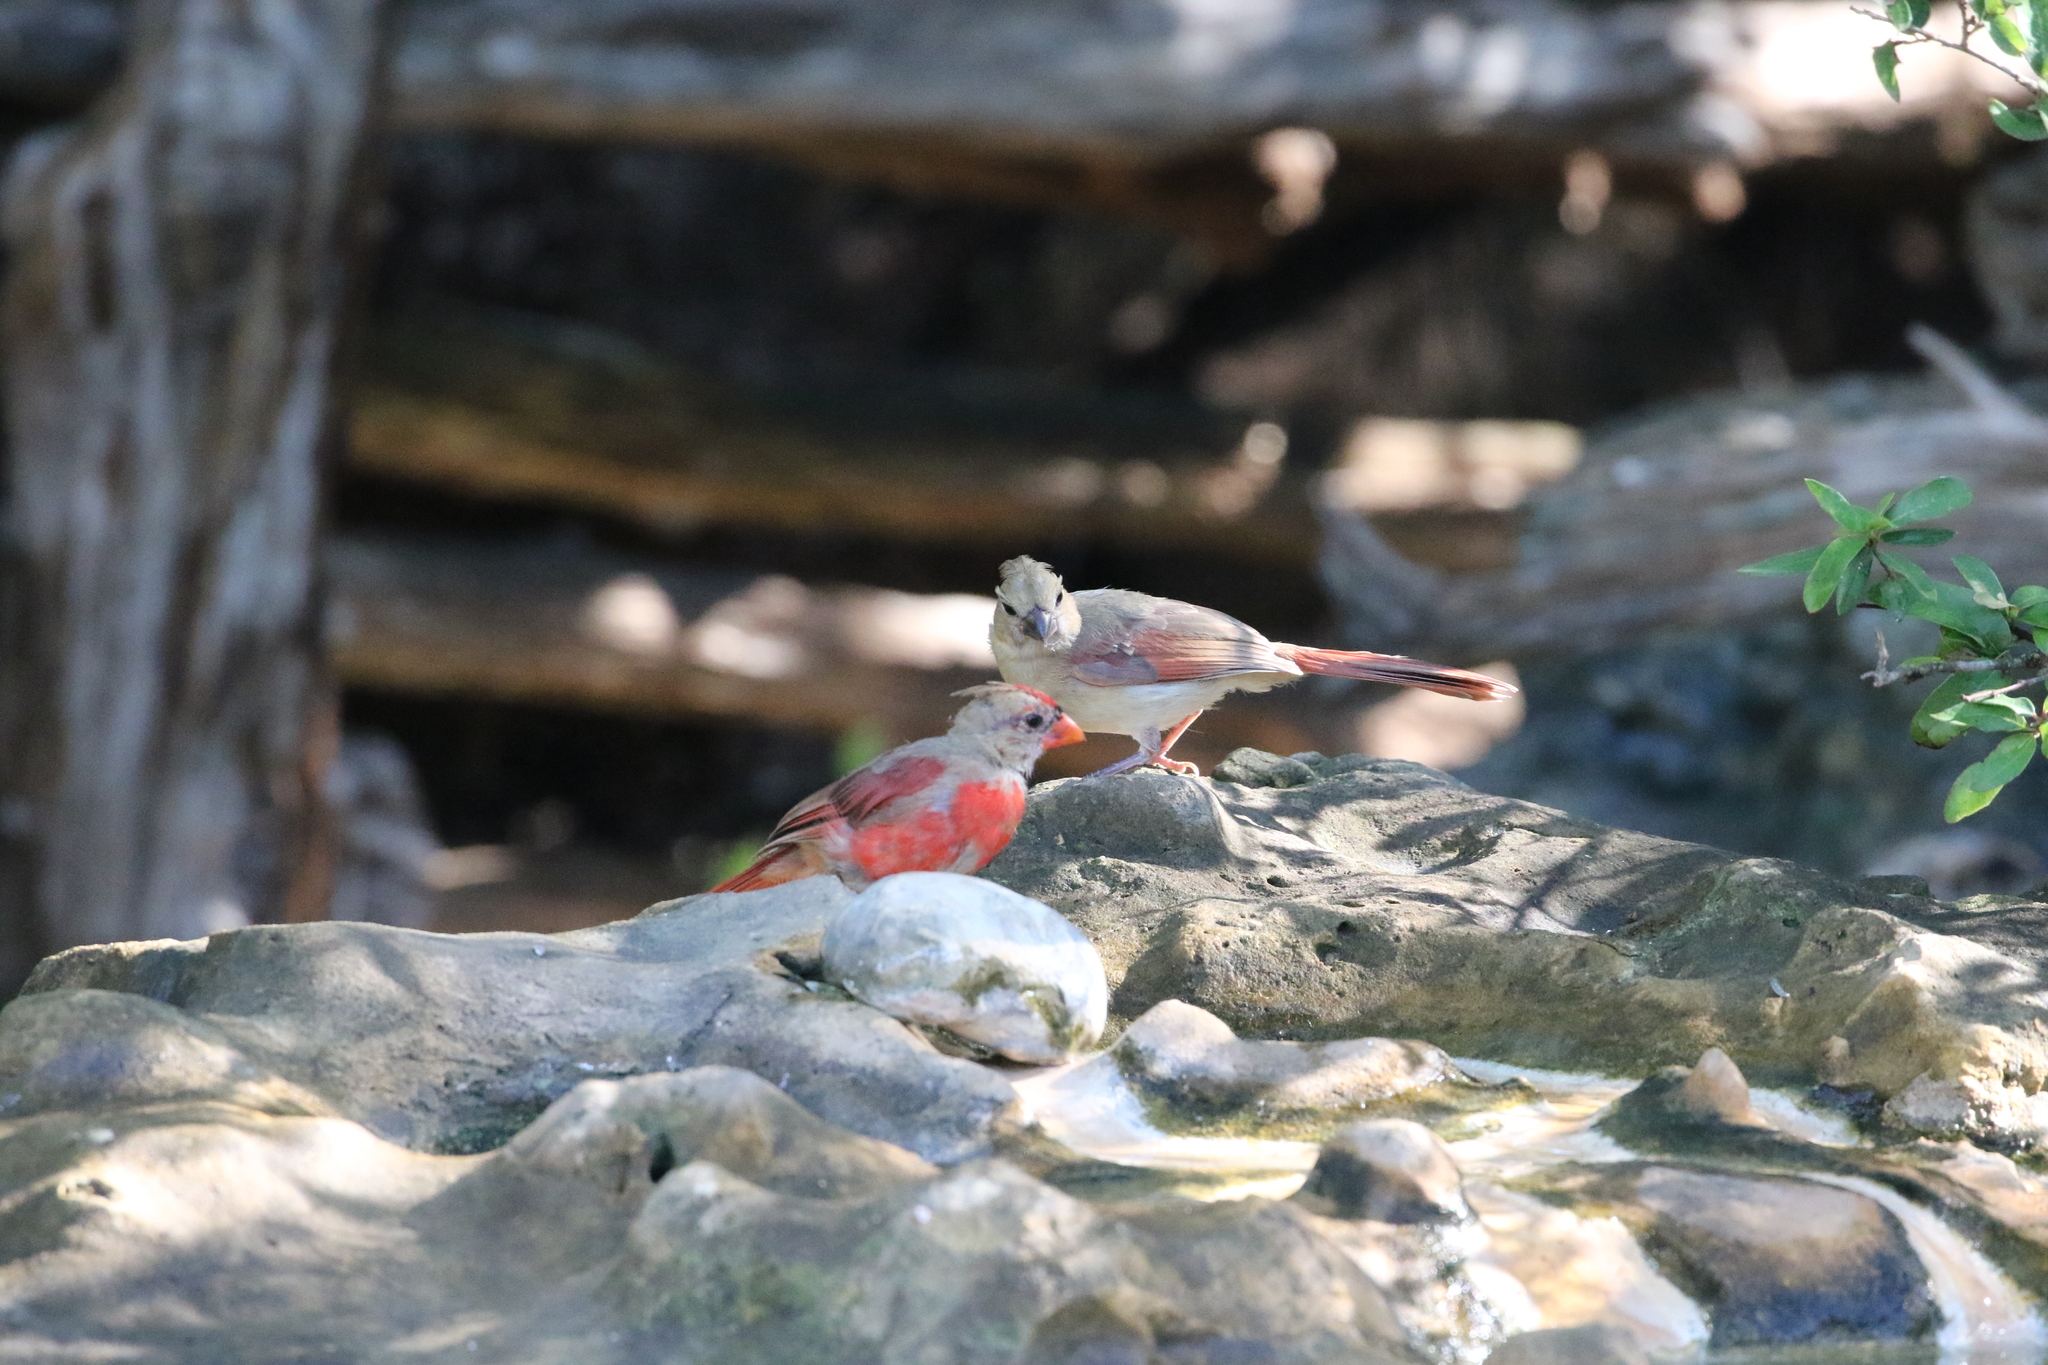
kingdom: Animalia
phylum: Chordata
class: Aves
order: Passeriformes
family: Cardinalidae
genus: Cardinalis
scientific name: Cardinalis cardinalis
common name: Northern cardinal
